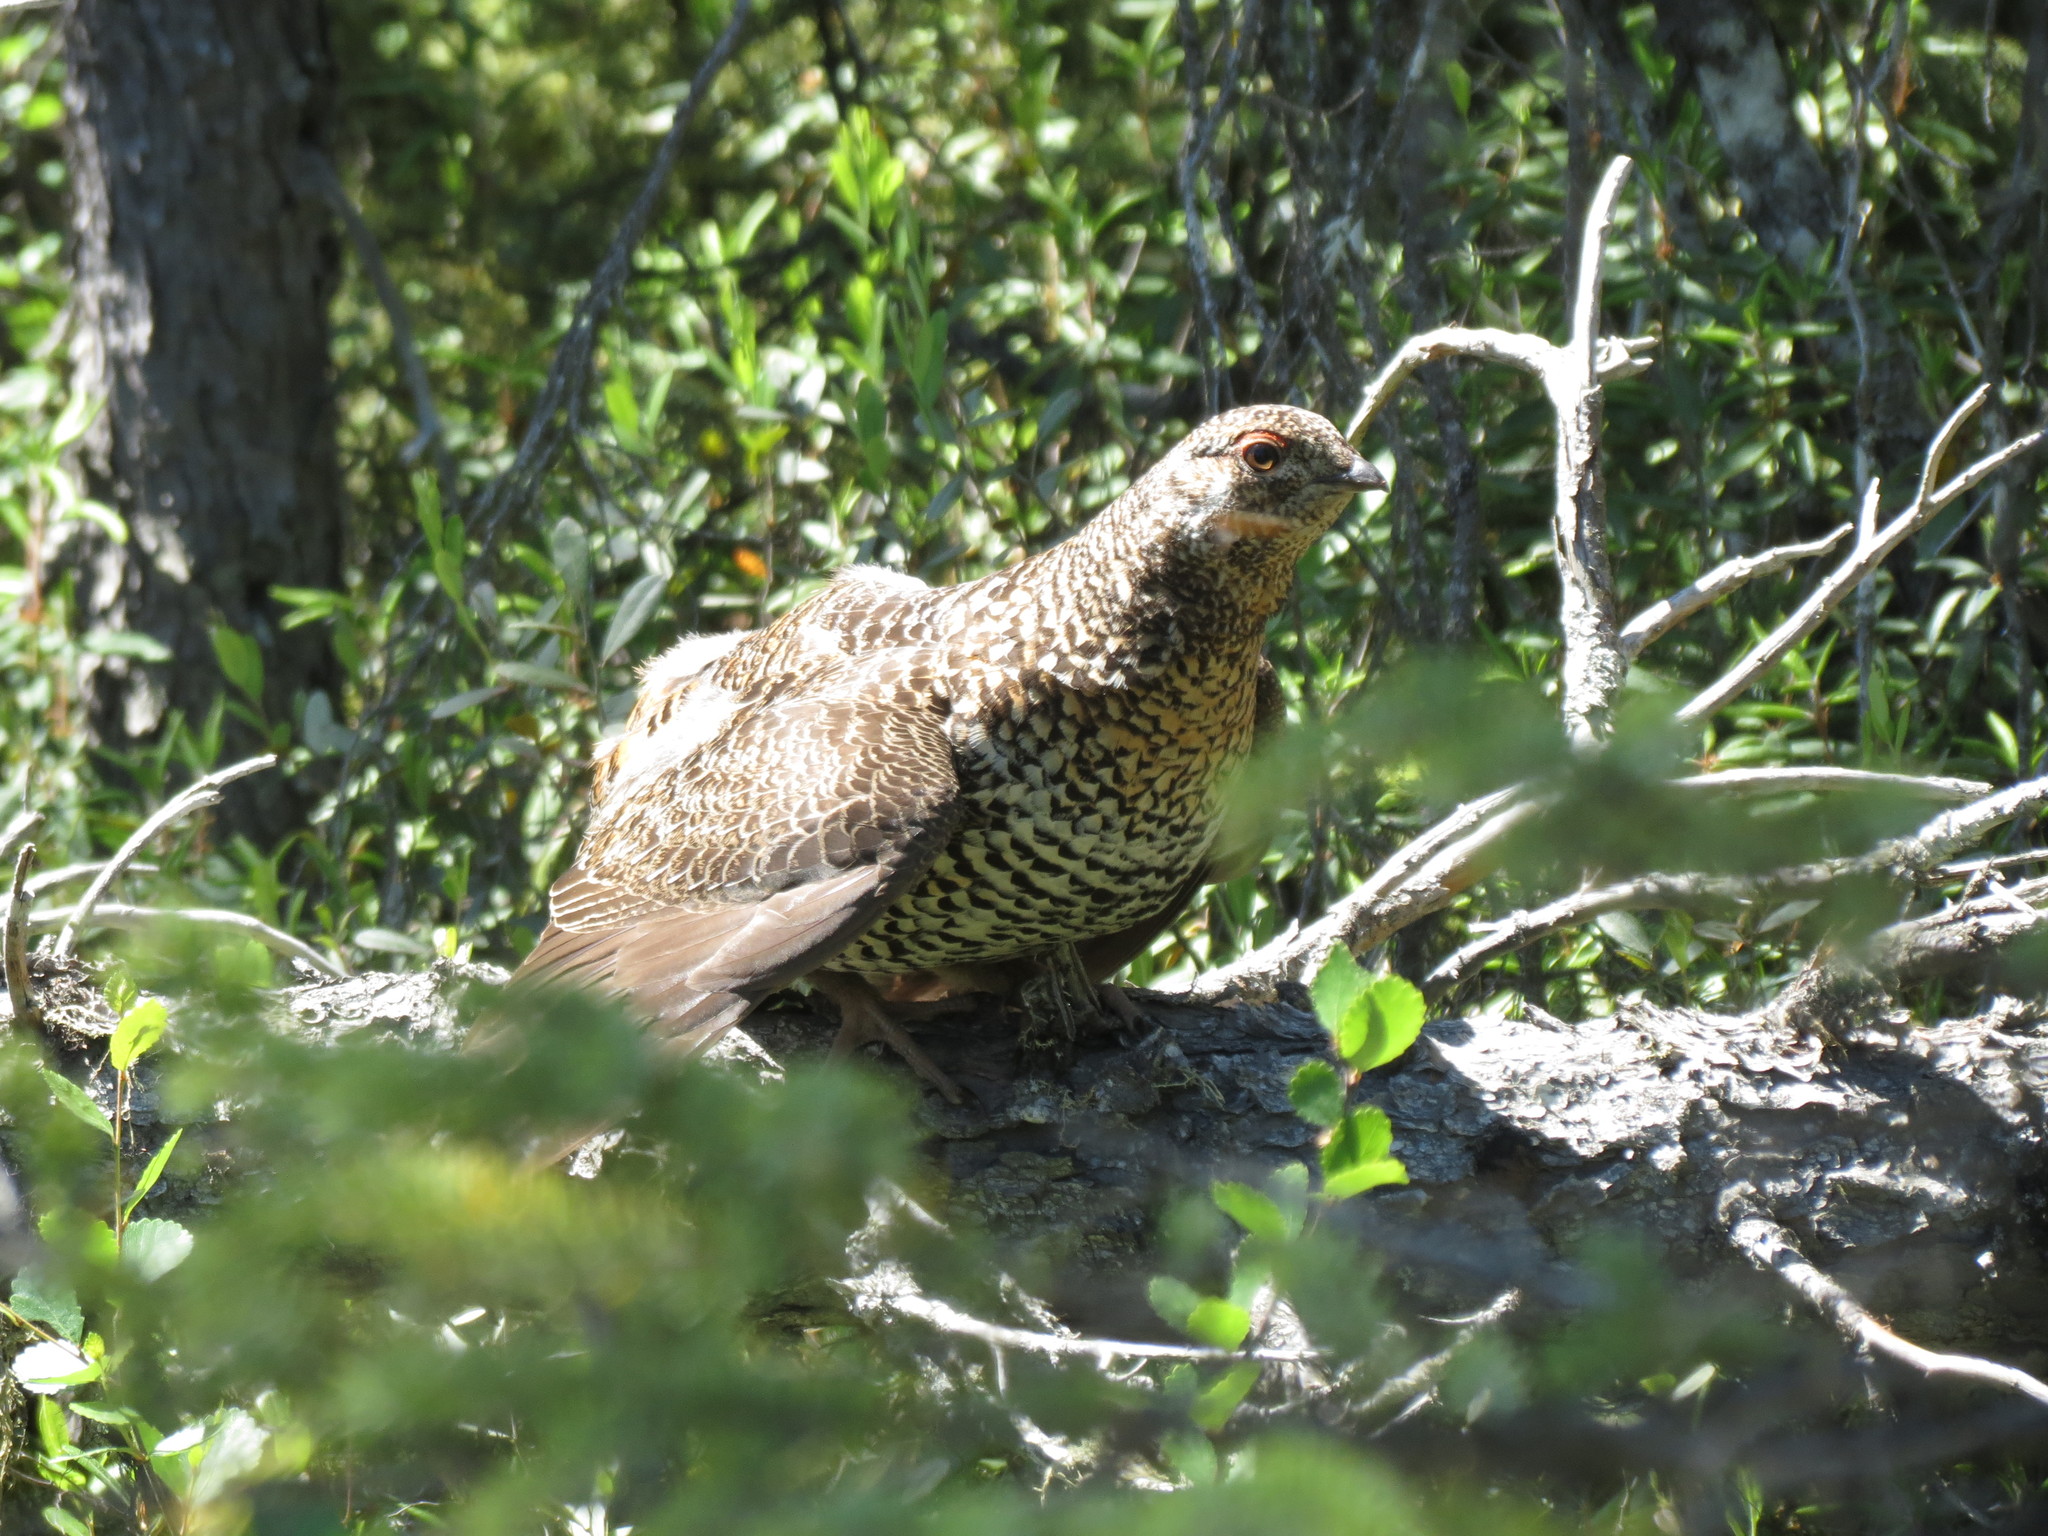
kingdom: Animalia
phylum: Chordata
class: Aves
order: Galliformes
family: Phasianidae
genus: Canachites
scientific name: Canachites canadensis
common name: Spruce grouse
